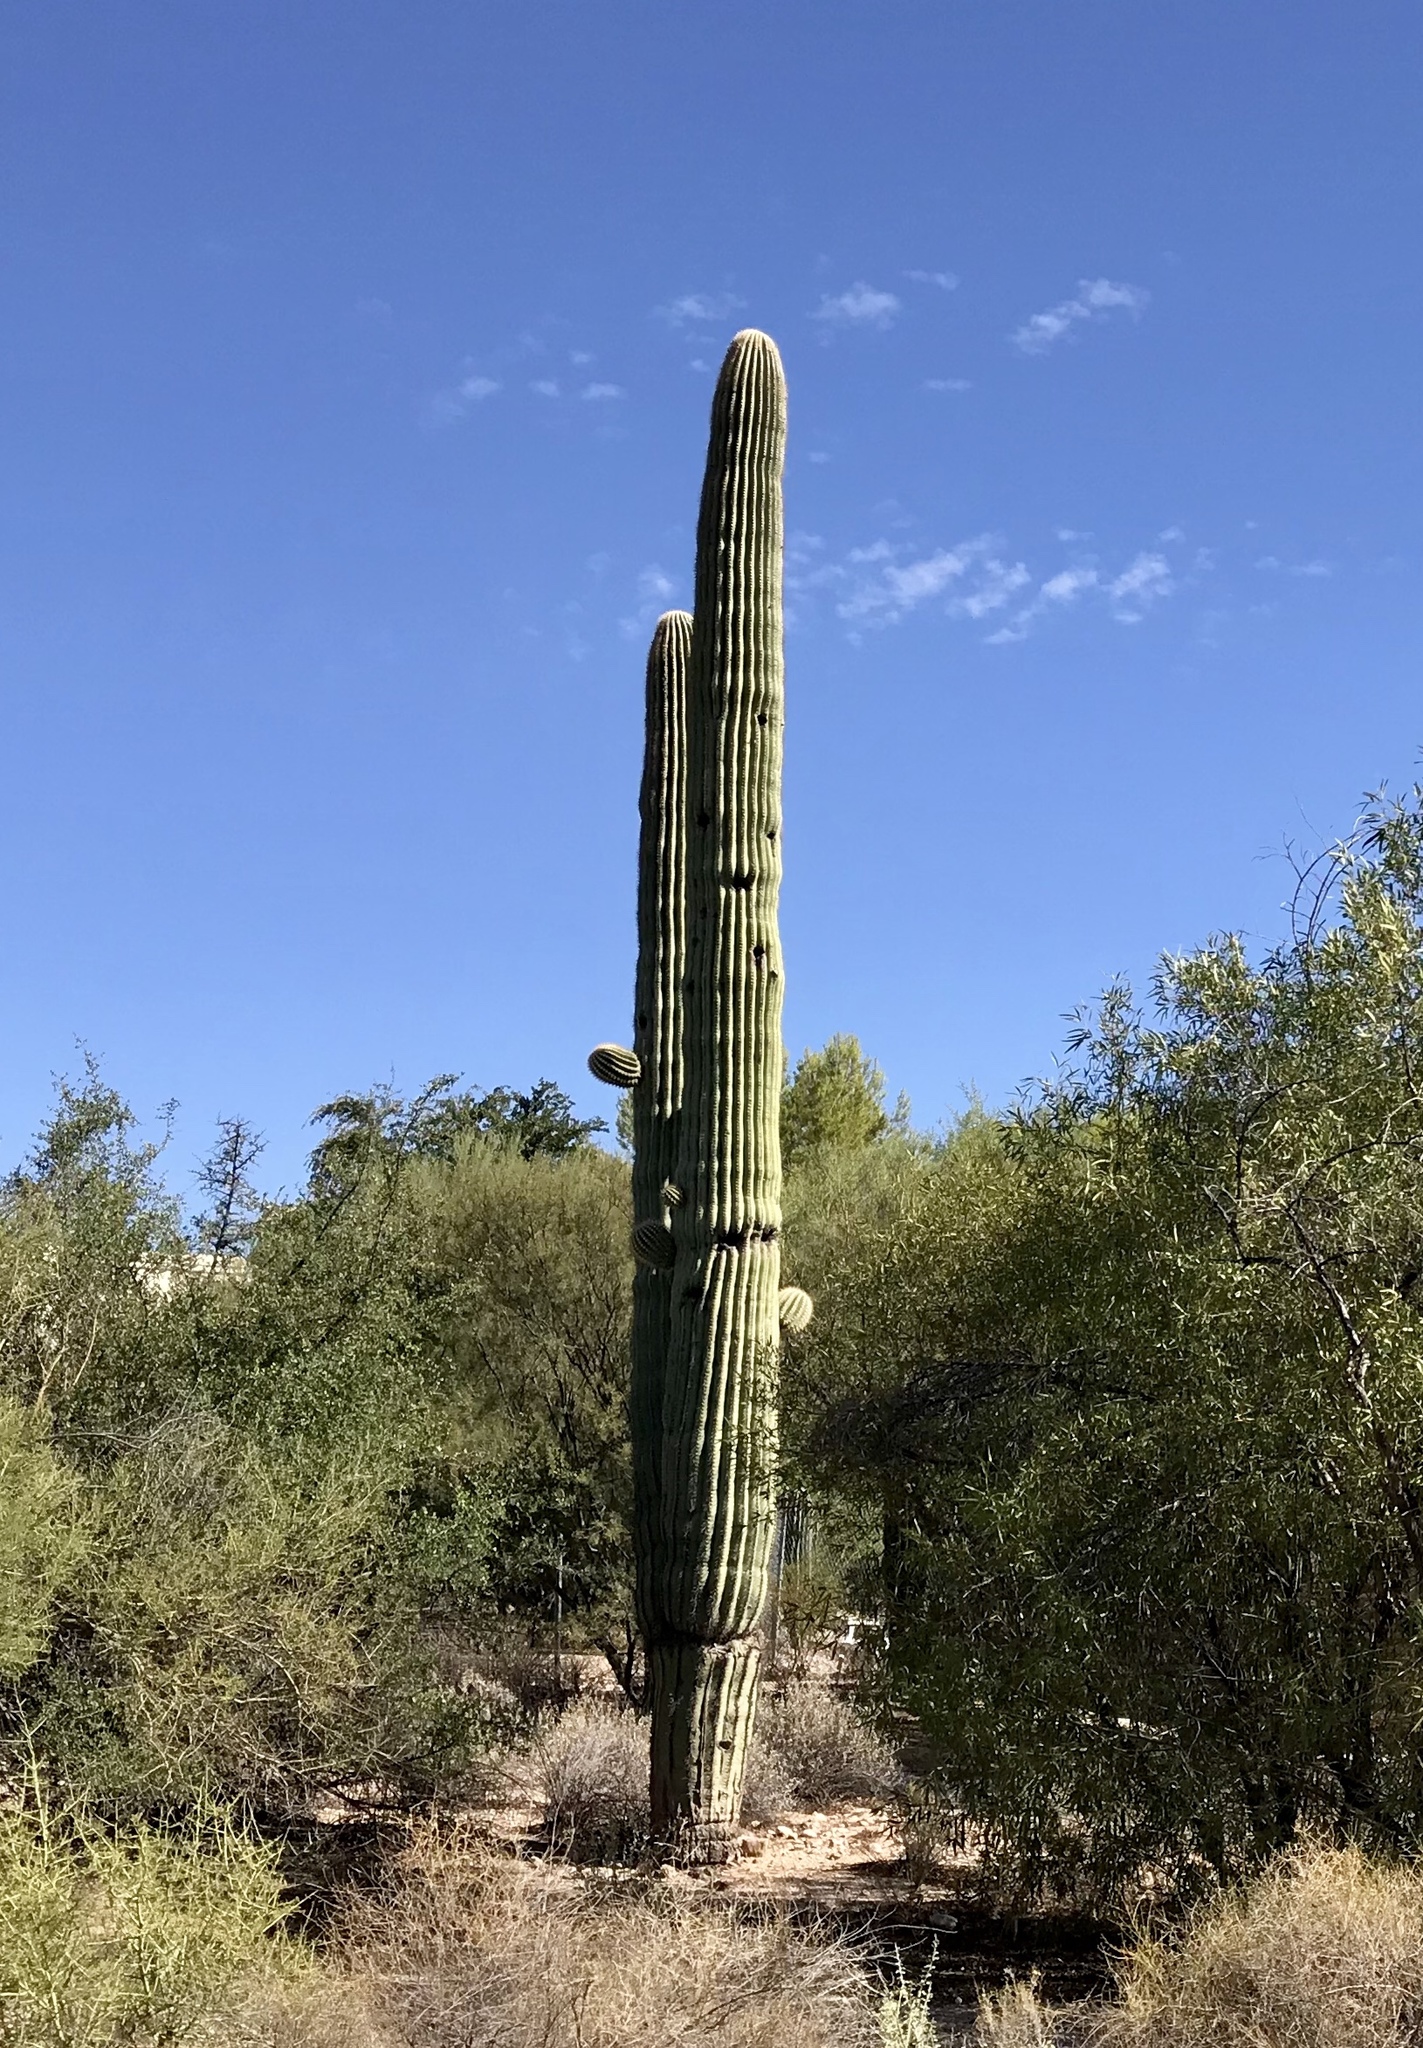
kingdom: Plantae
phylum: Tracheophyta
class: Magnoliopsida
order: Caryophyllales
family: Cactaceae
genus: Carnegiea
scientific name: Carnegiea gigantea
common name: Saguaro
